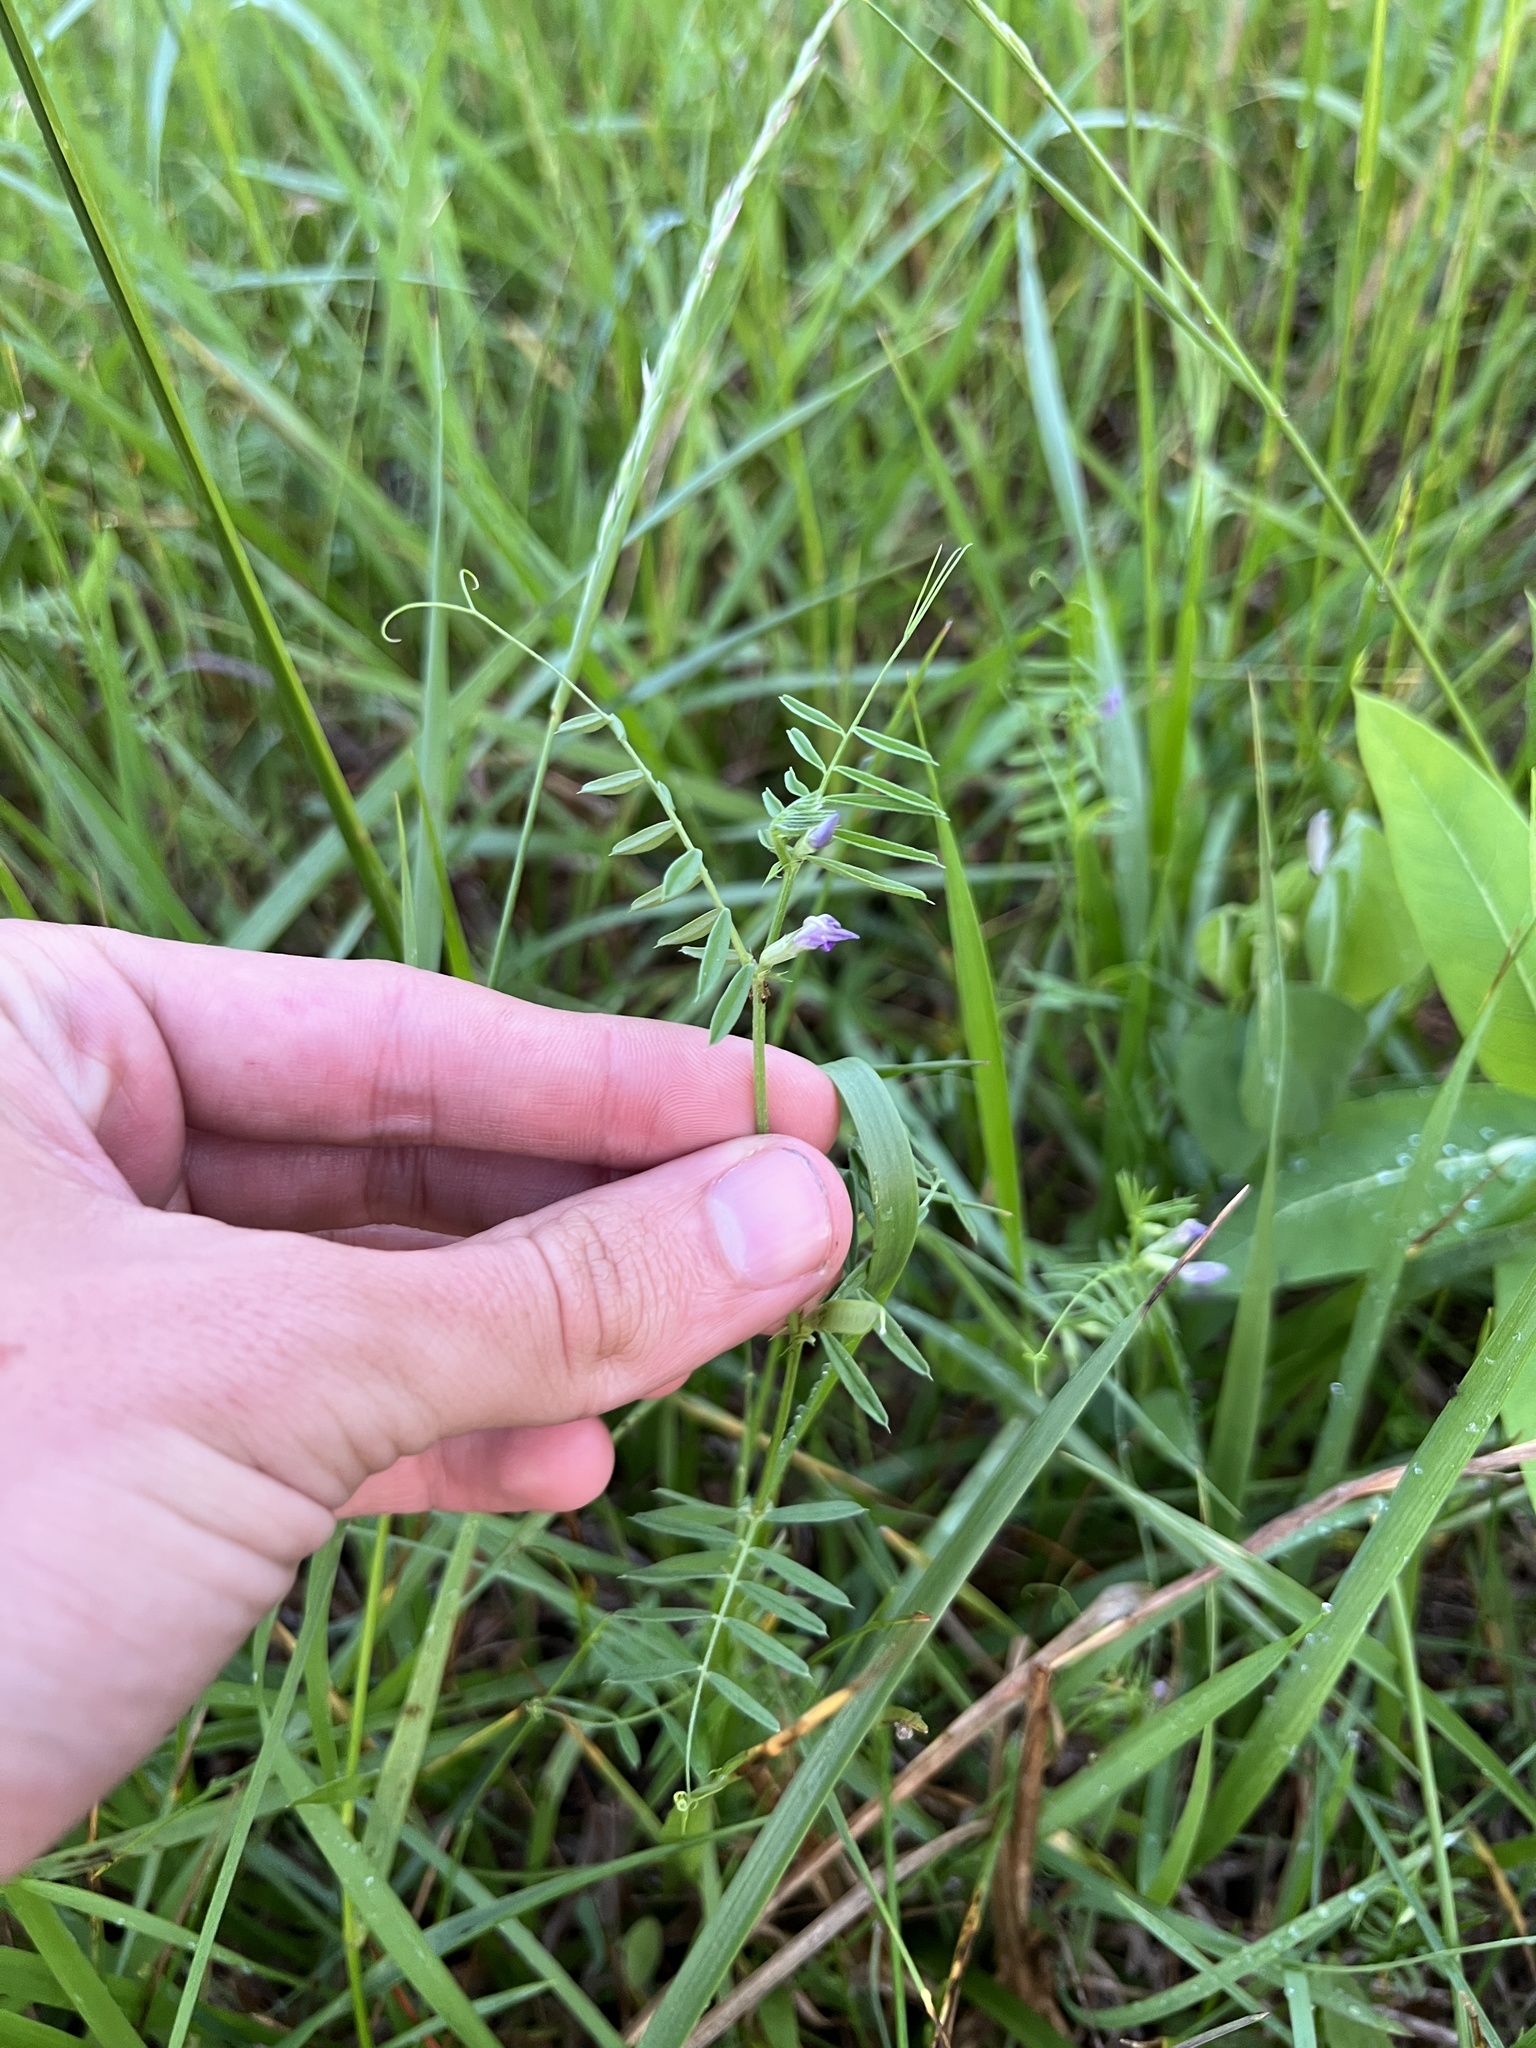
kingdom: Plantae
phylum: Tracheophyta
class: Magnoliopsida
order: Fabales
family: Fabaceae
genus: Vicia
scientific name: Vicia sativa
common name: Garden vetch
